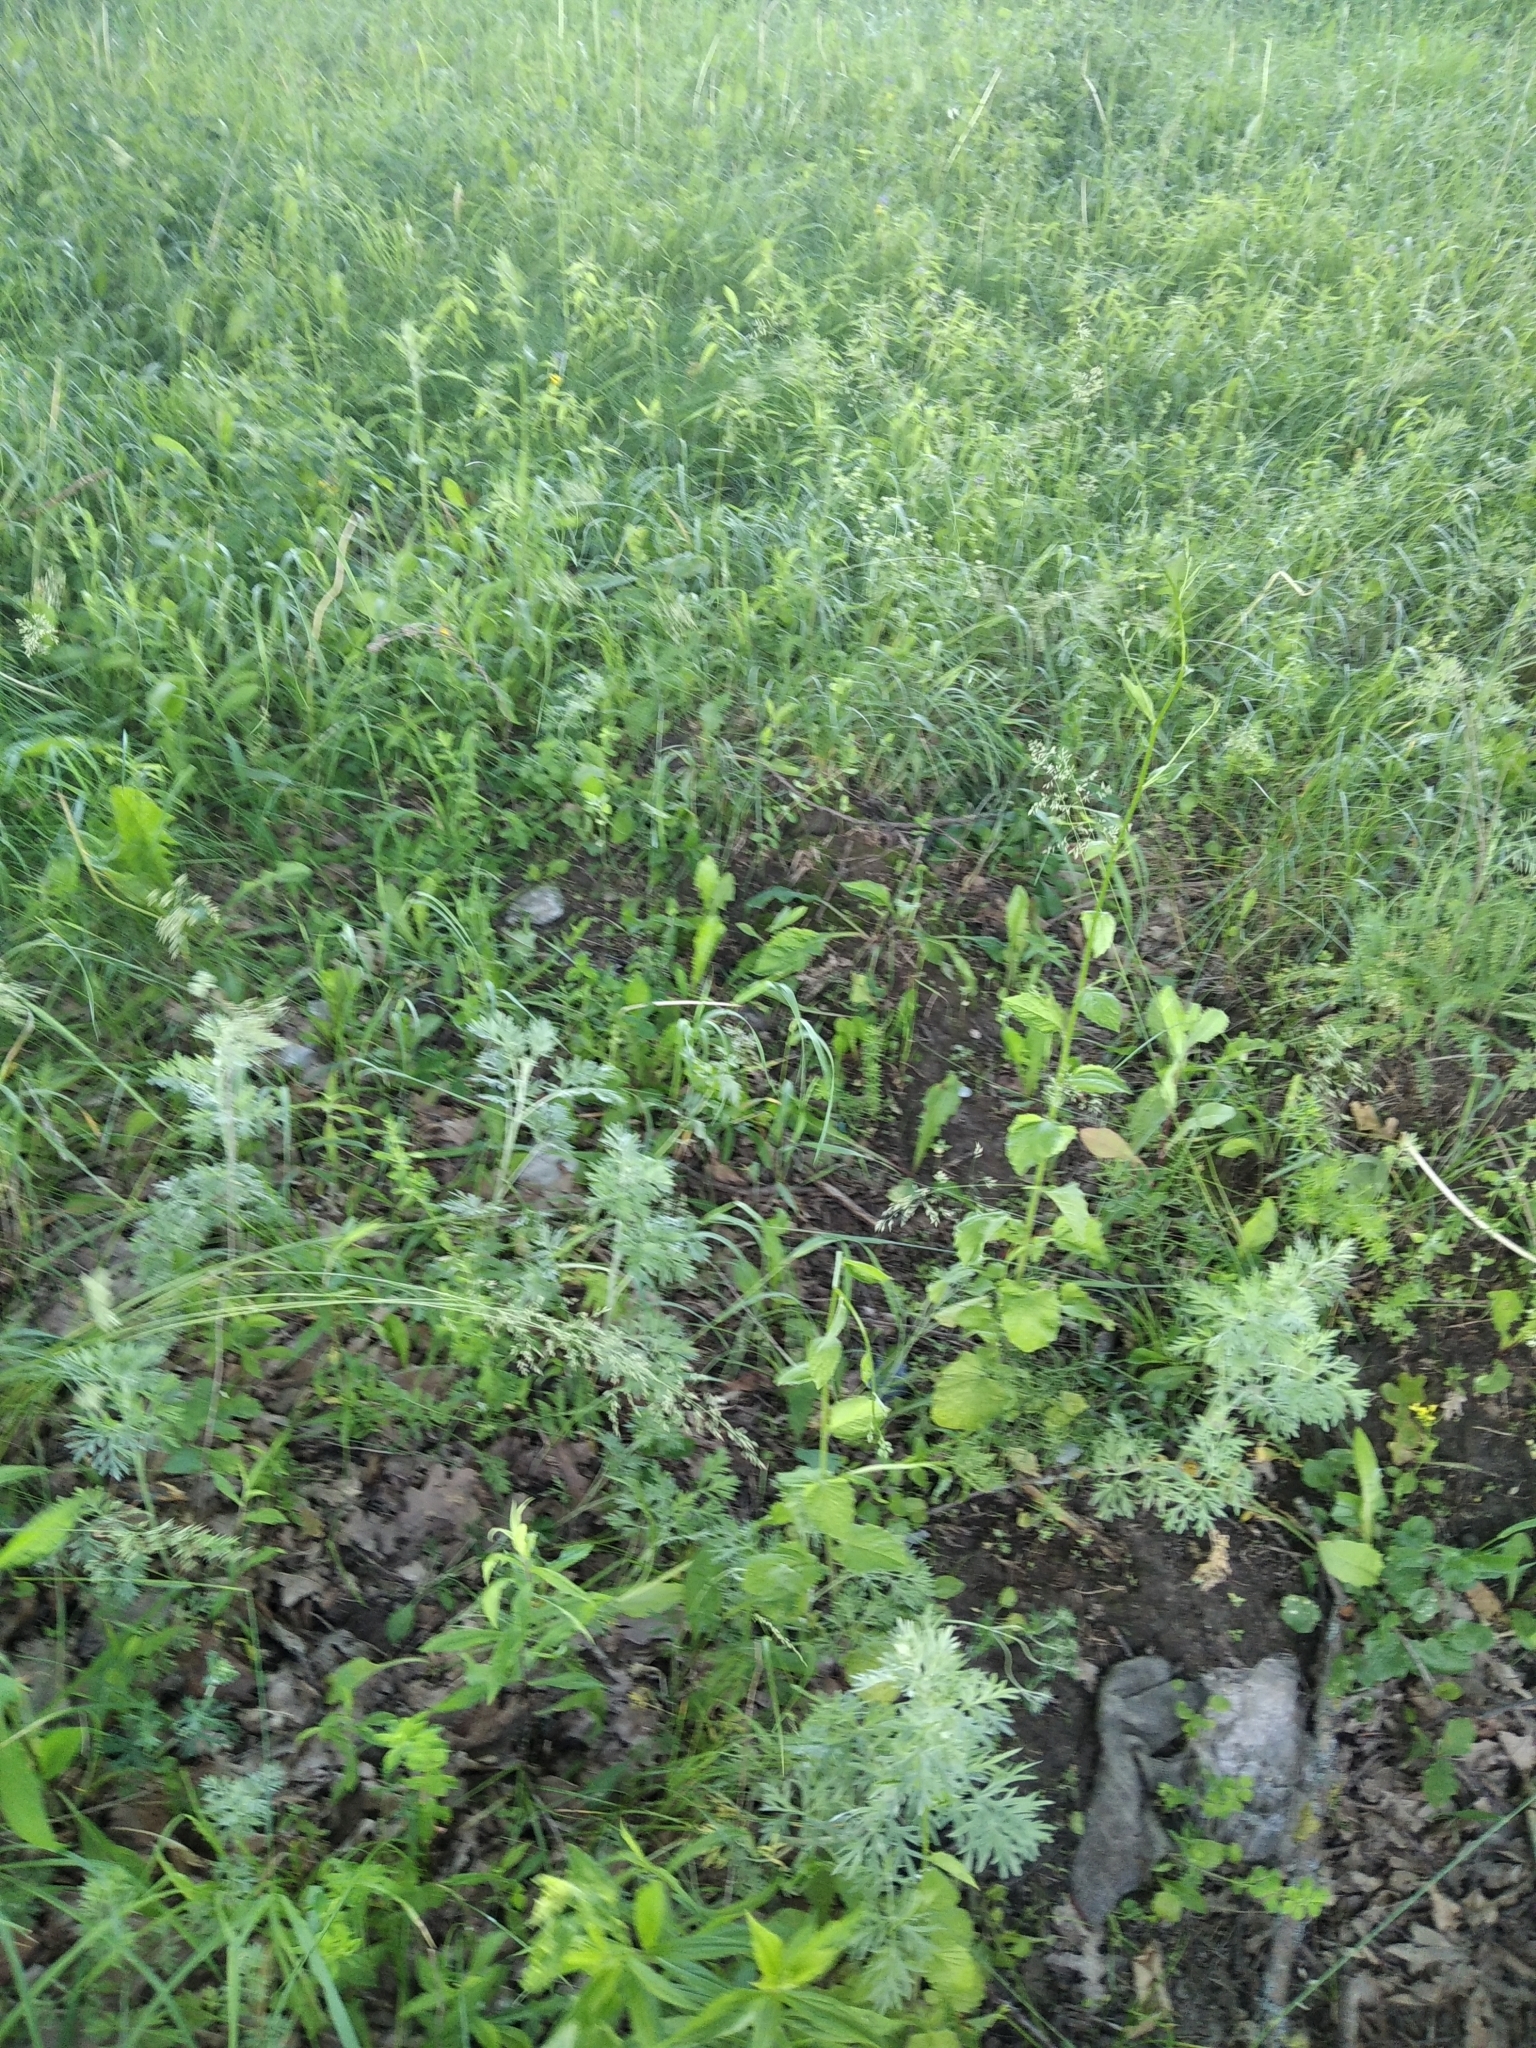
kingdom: Plantae
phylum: Tracheophyta
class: Magnoliopsida
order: Saxifragales
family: Crassulaceae
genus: Sedum
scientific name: Sedum hispanicum
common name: Spanish stonecrop
